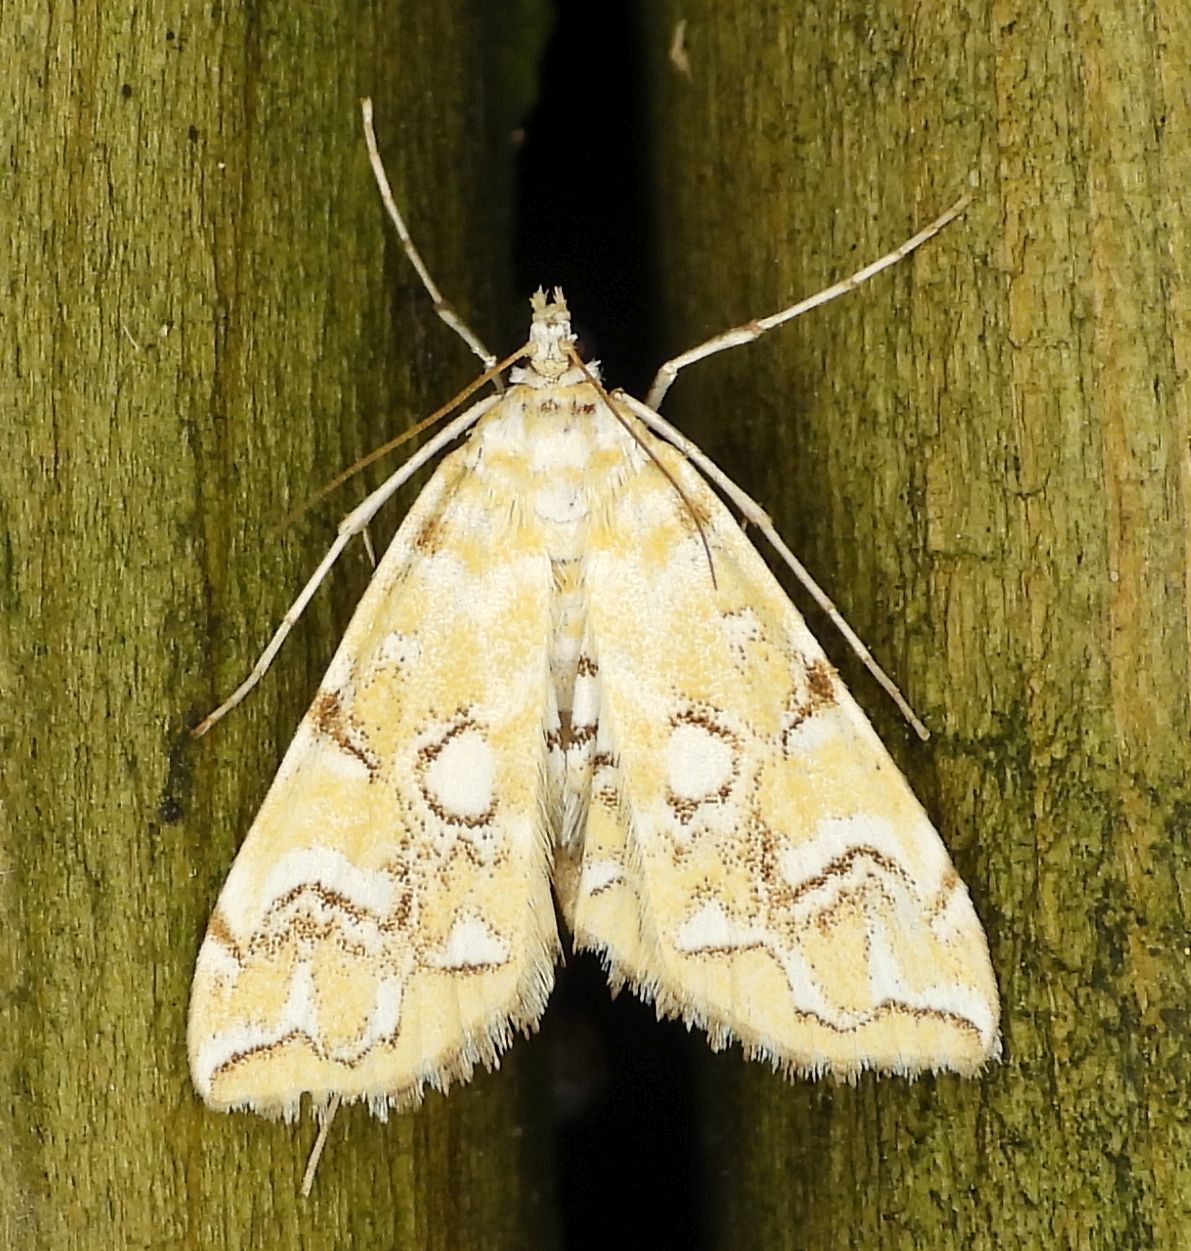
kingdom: Animalia
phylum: Arthropoda
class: Insecta
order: Lepidoptera
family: Crambidae
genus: Elophila
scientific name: Elophila icciusalis
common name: Pondside pyralid moth
